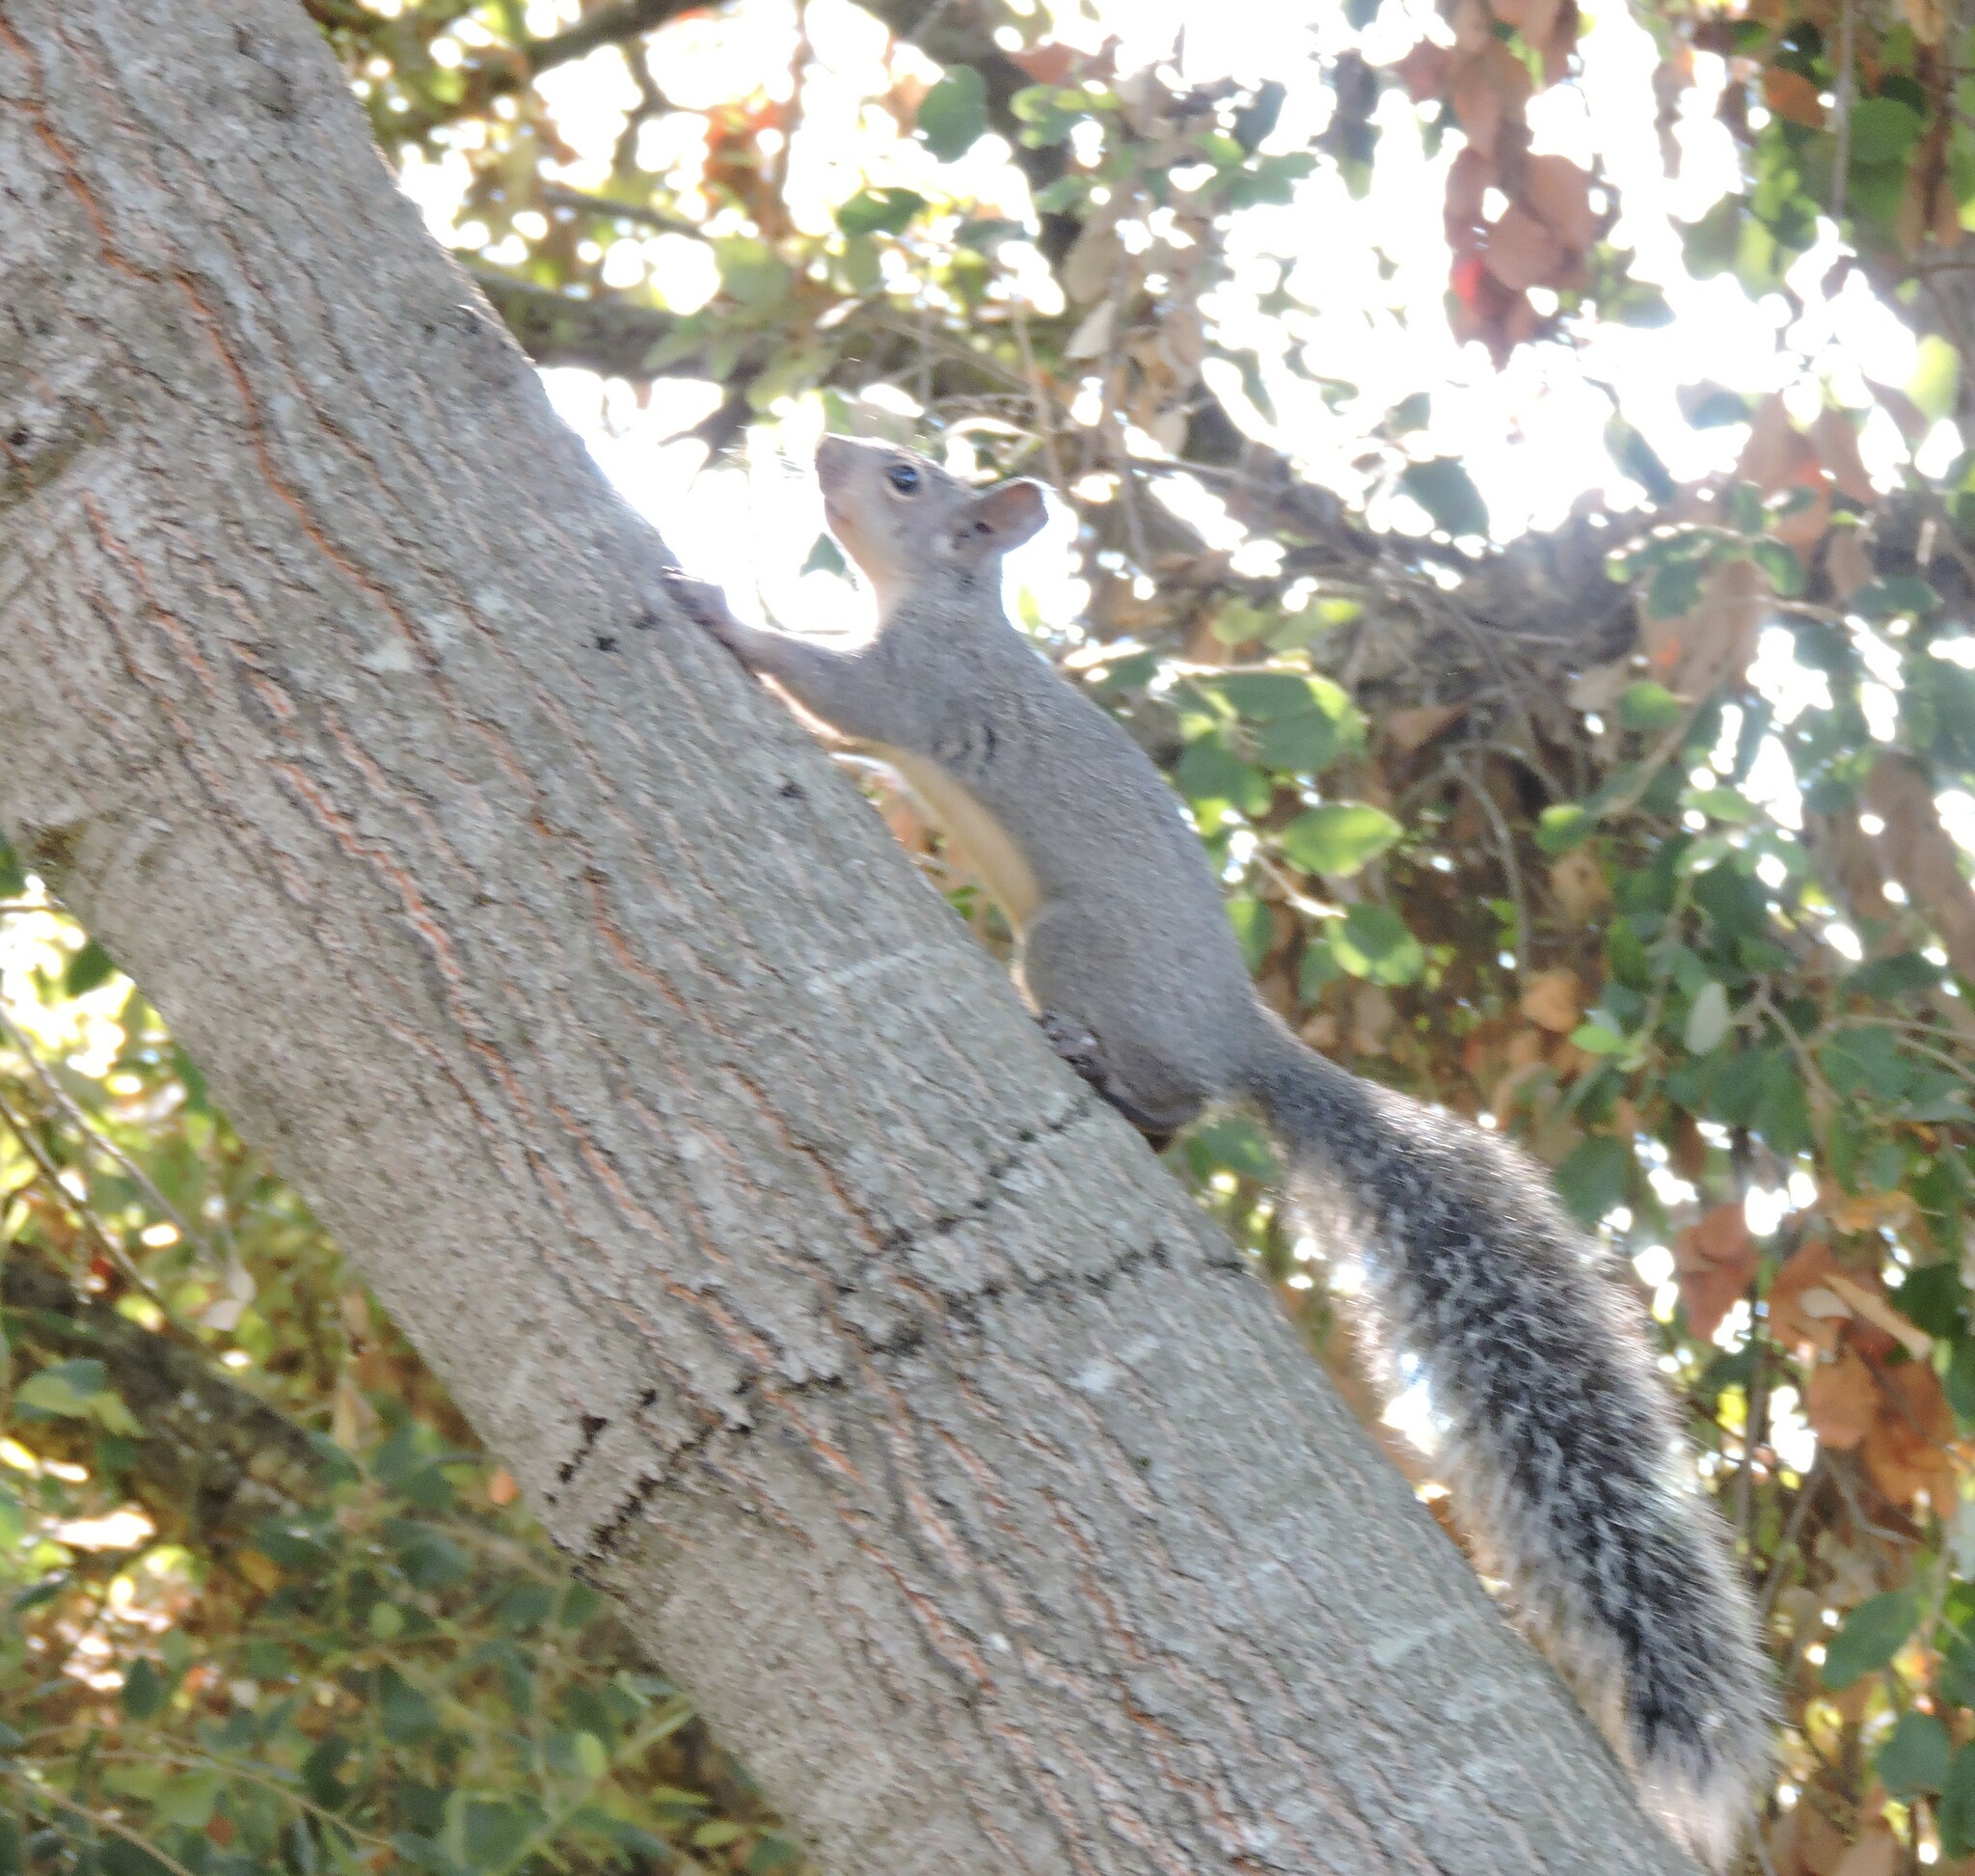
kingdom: Animalia
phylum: Chordata
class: Mammalia
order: Rodentia
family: Sciuridae
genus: Sciurus
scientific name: Sciurus griseus
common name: Western gray squirrel
